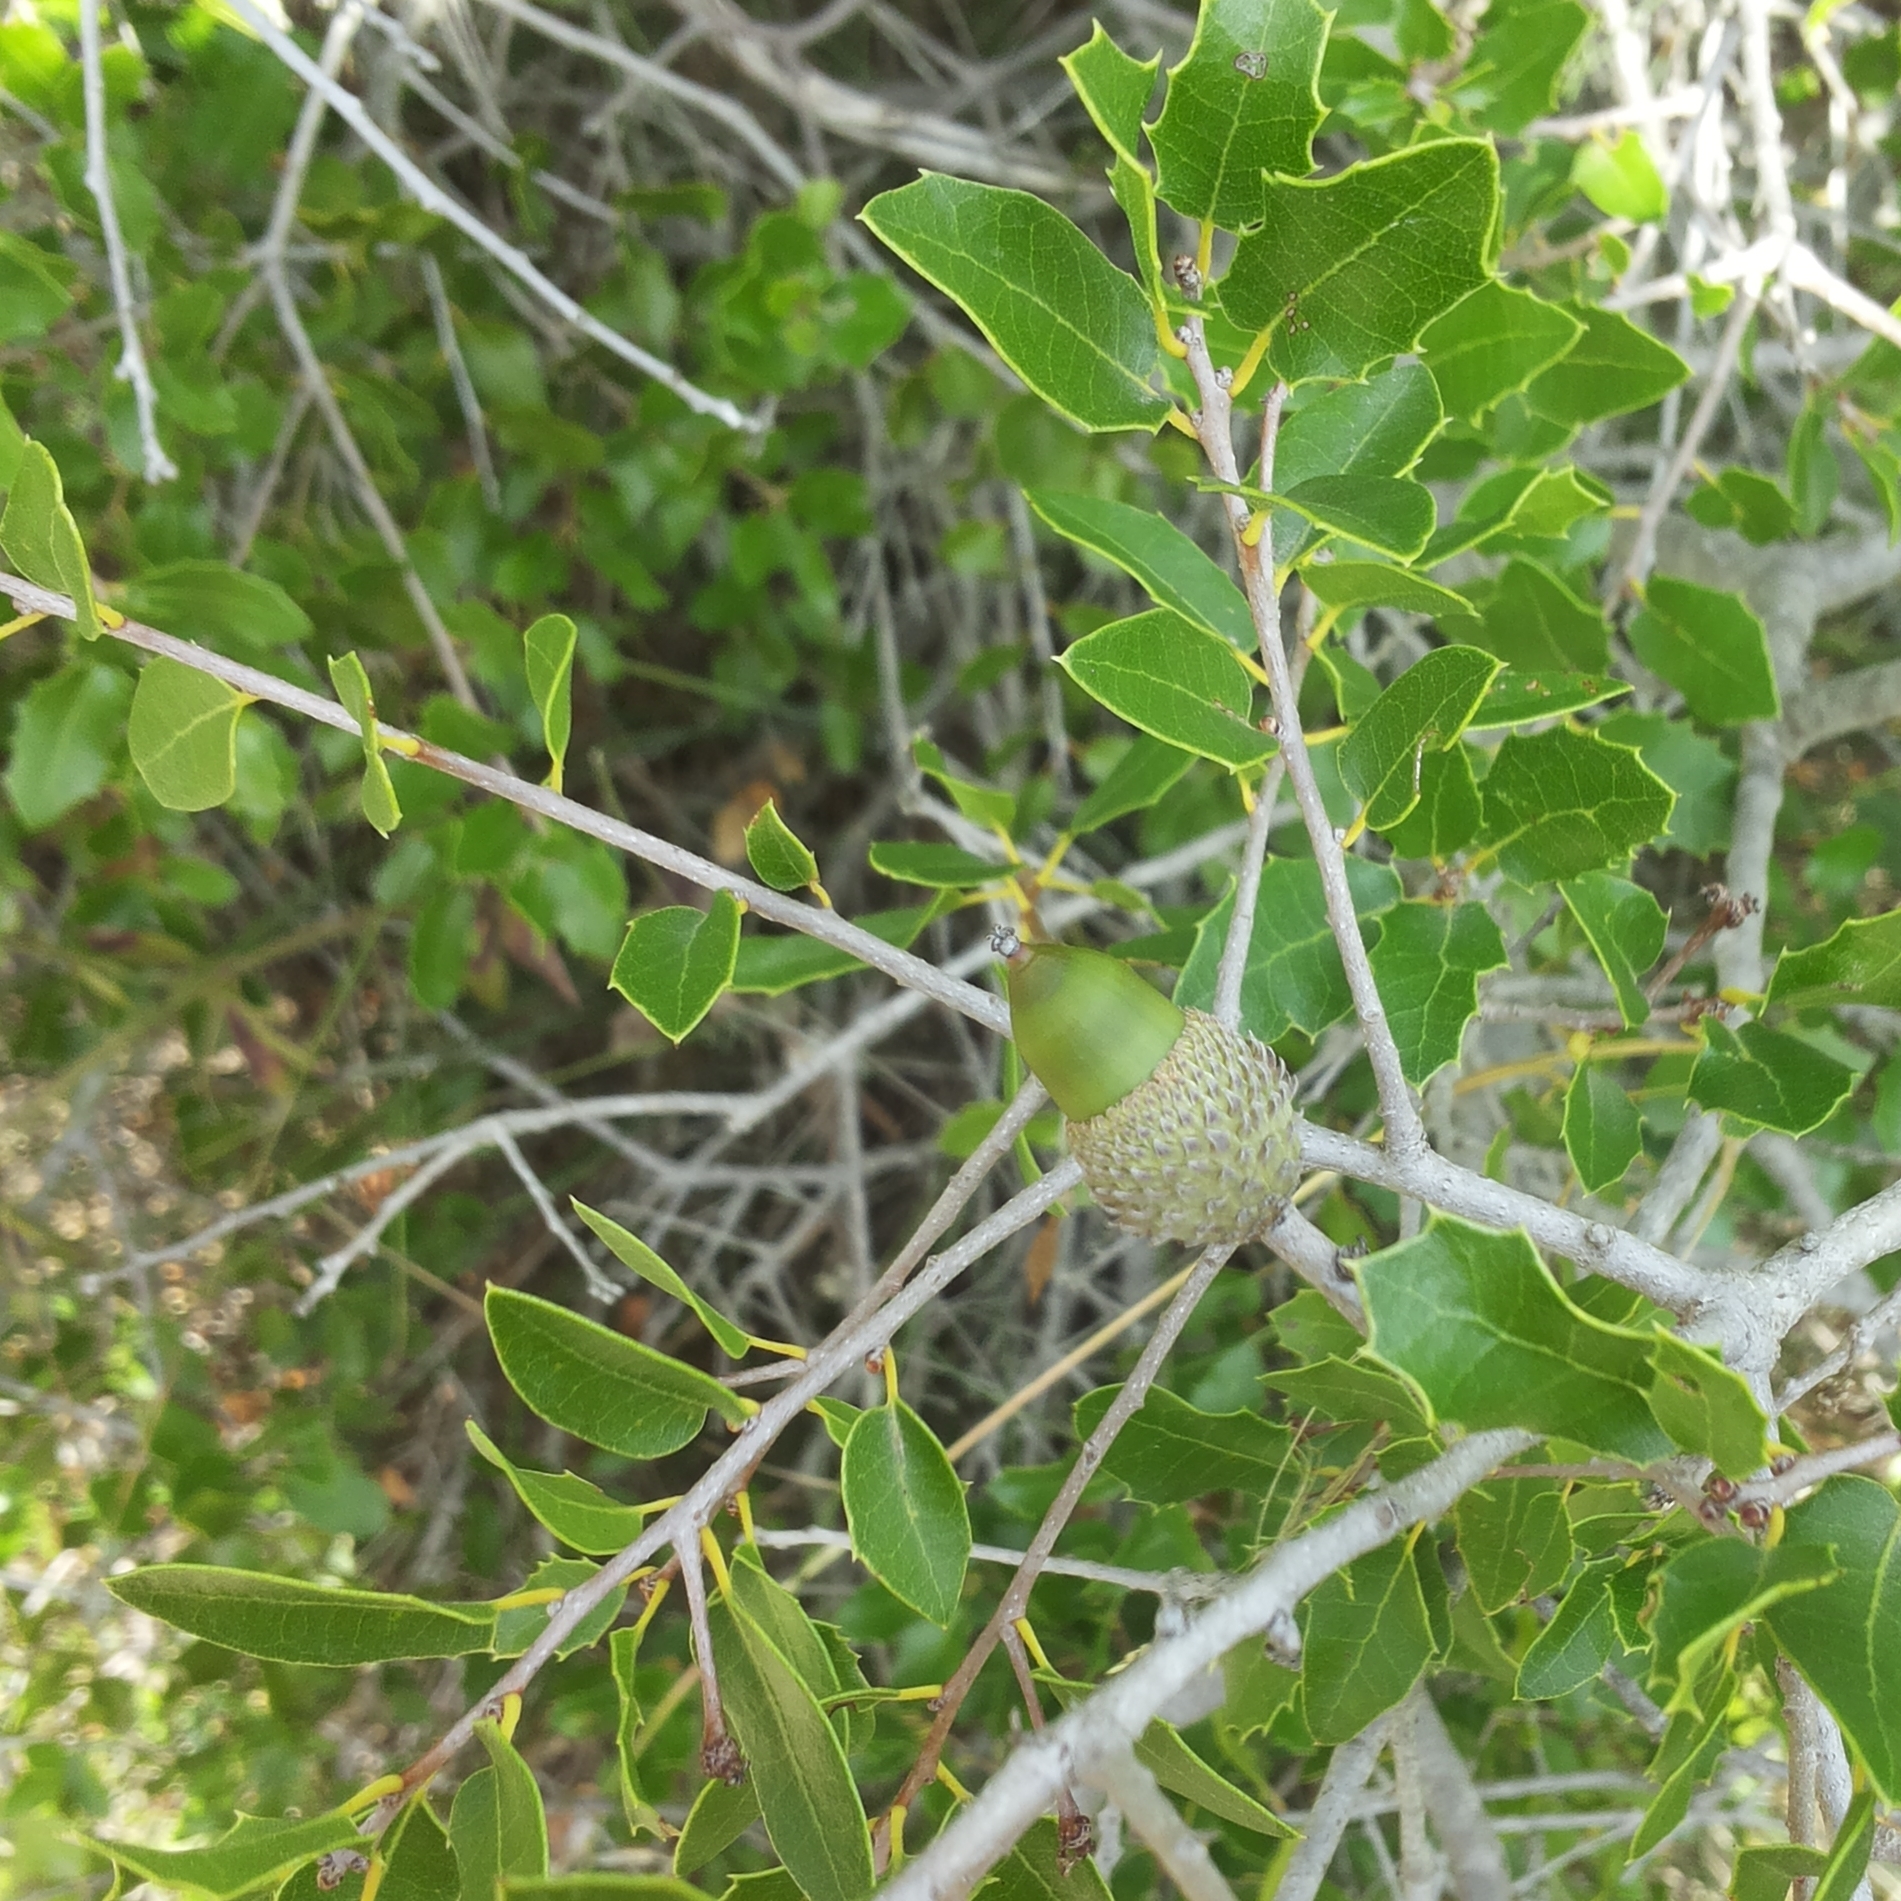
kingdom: Plantae
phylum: Tracheophyta
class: Magnoliopsida
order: Fagales
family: Fagaceae
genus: Quercus
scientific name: Quercus coccifera
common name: Kermes oak
